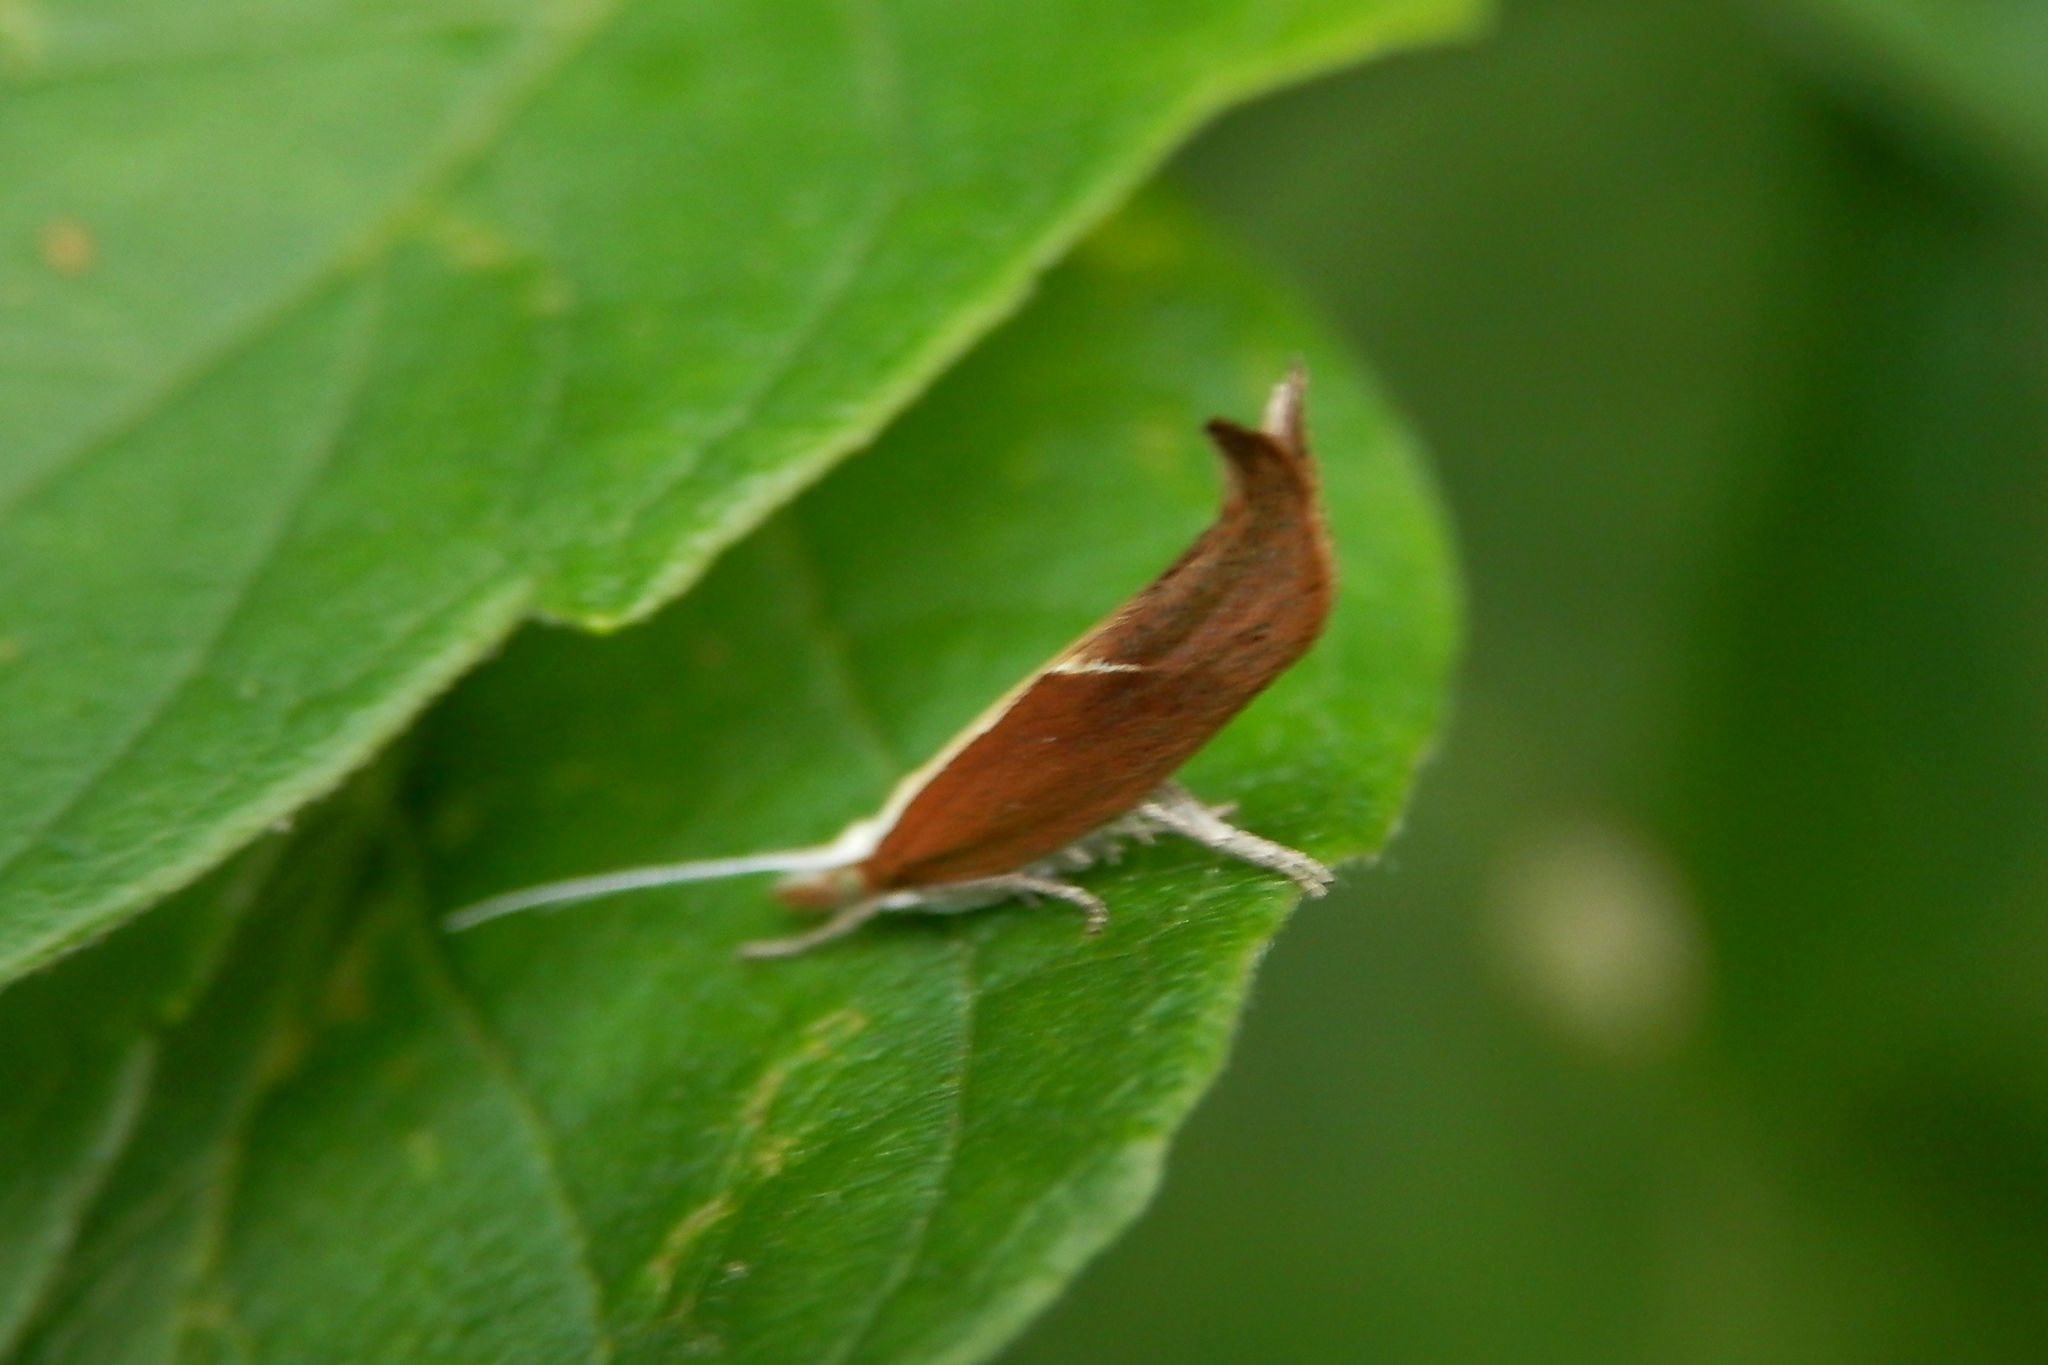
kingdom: Animalia
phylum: Arthropoda
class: Insecta
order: Lepidoptera
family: Ypsolophidae
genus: Ypsolopha
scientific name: Ypsolopha dentella
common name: Honeysuckle moth
